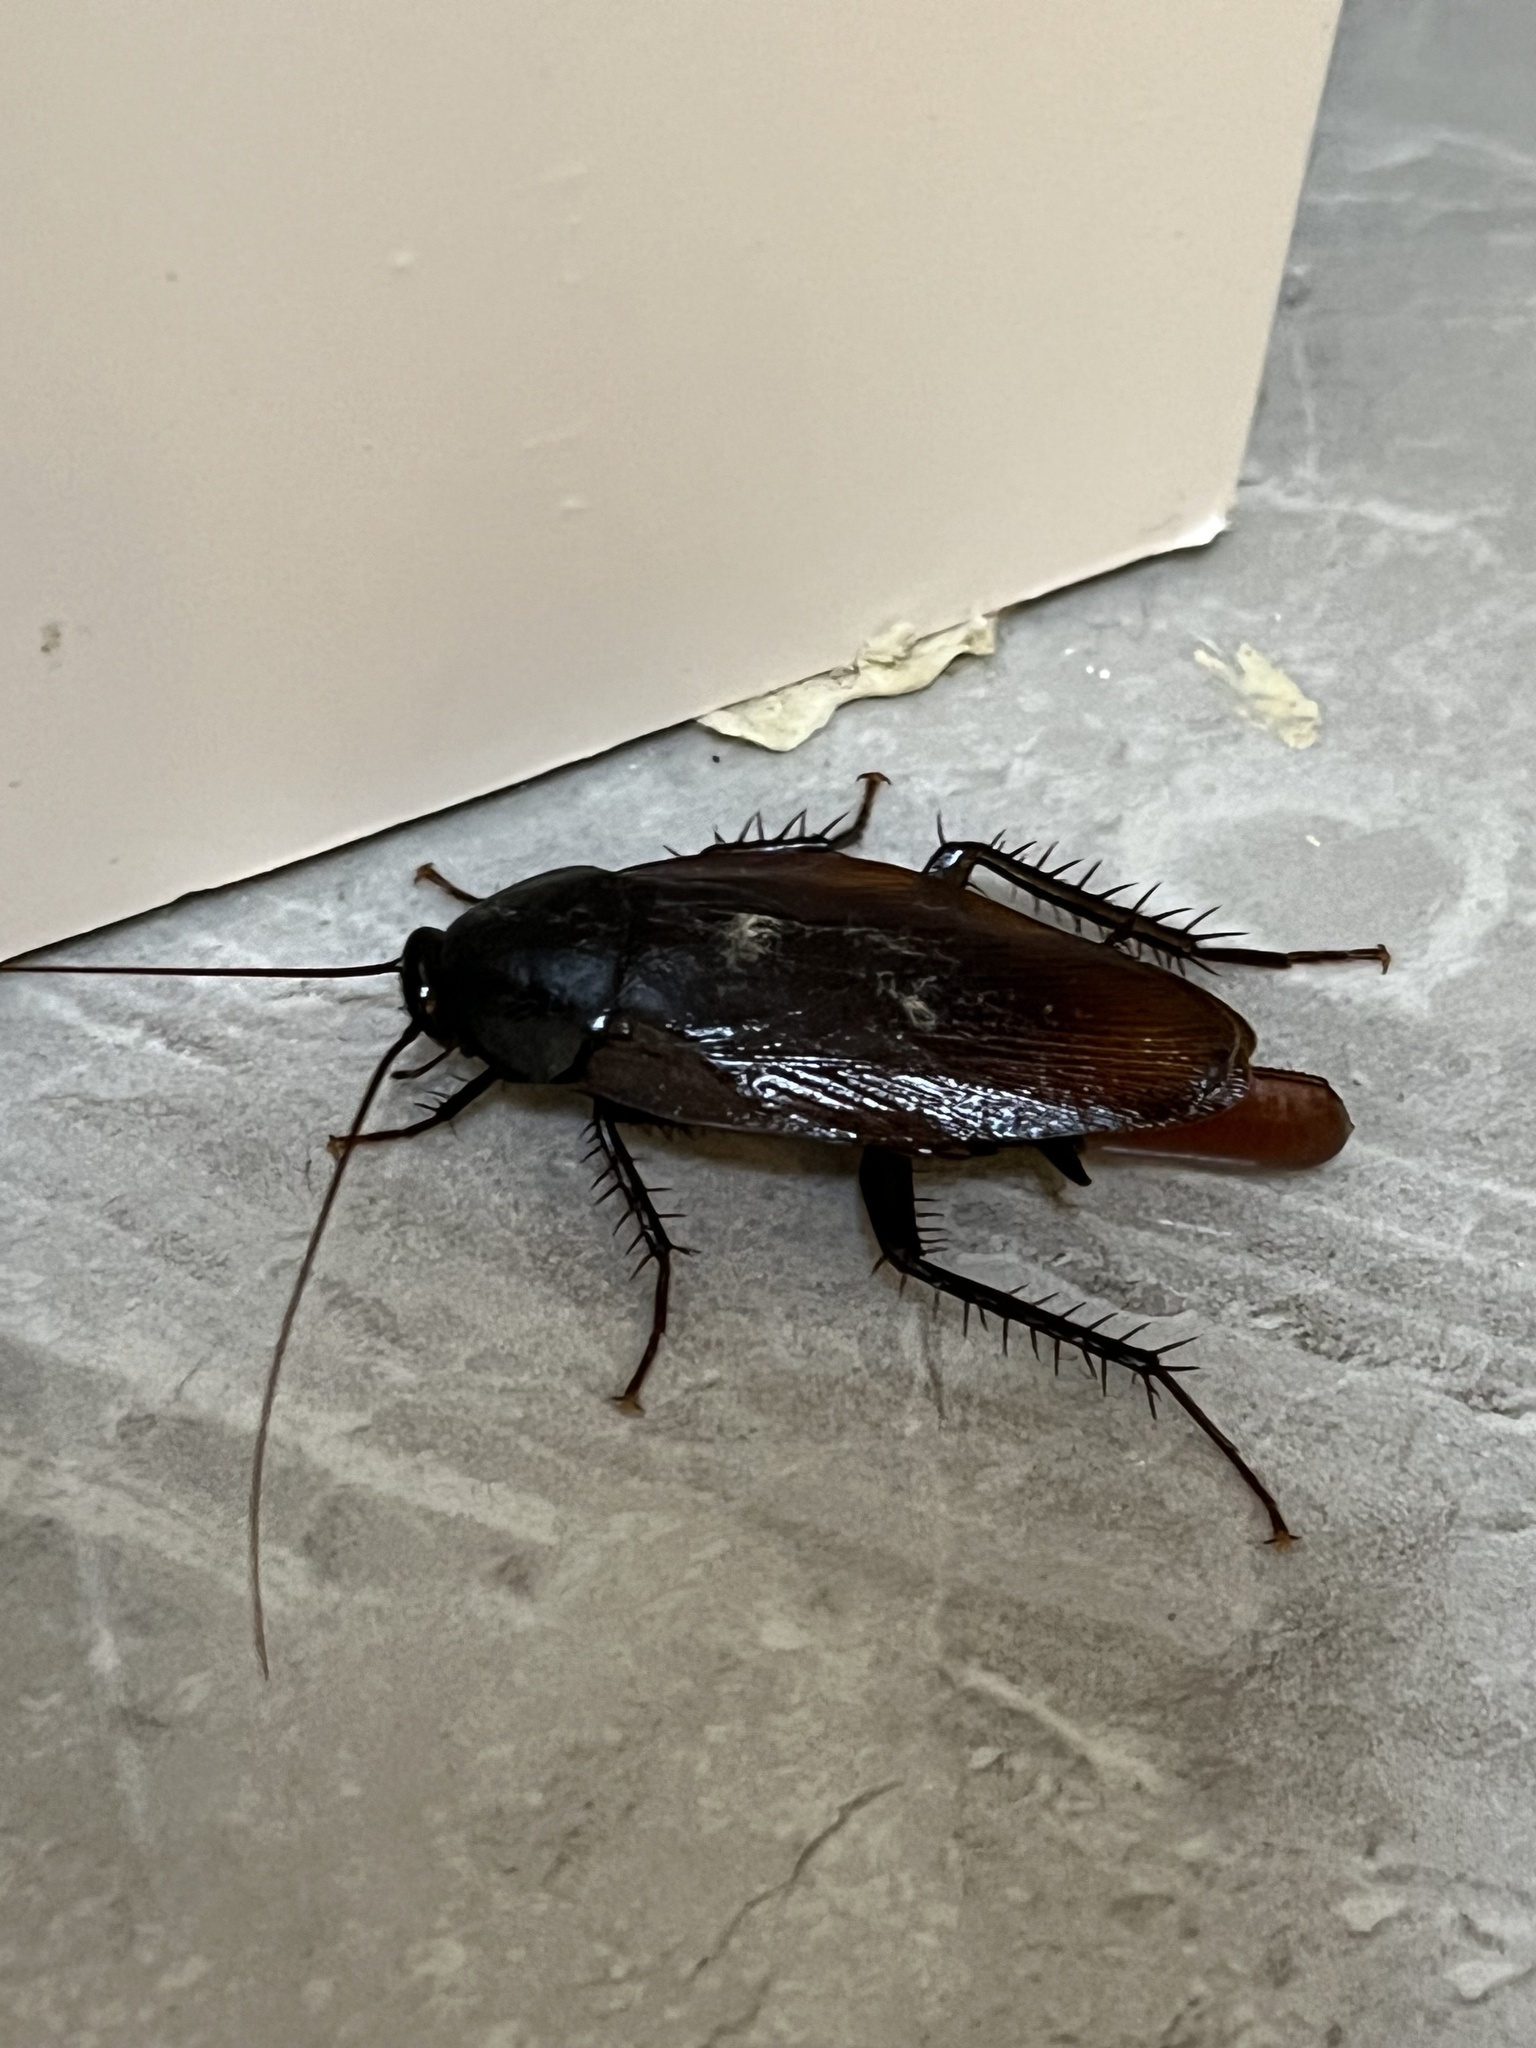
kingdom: Animalia
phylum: Arthropoda
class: Insecta
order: Blattodea
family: Blattidae
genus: Periplaneta
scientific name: Periplaneta fuliginosa
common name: Smokeybrown cockroad
